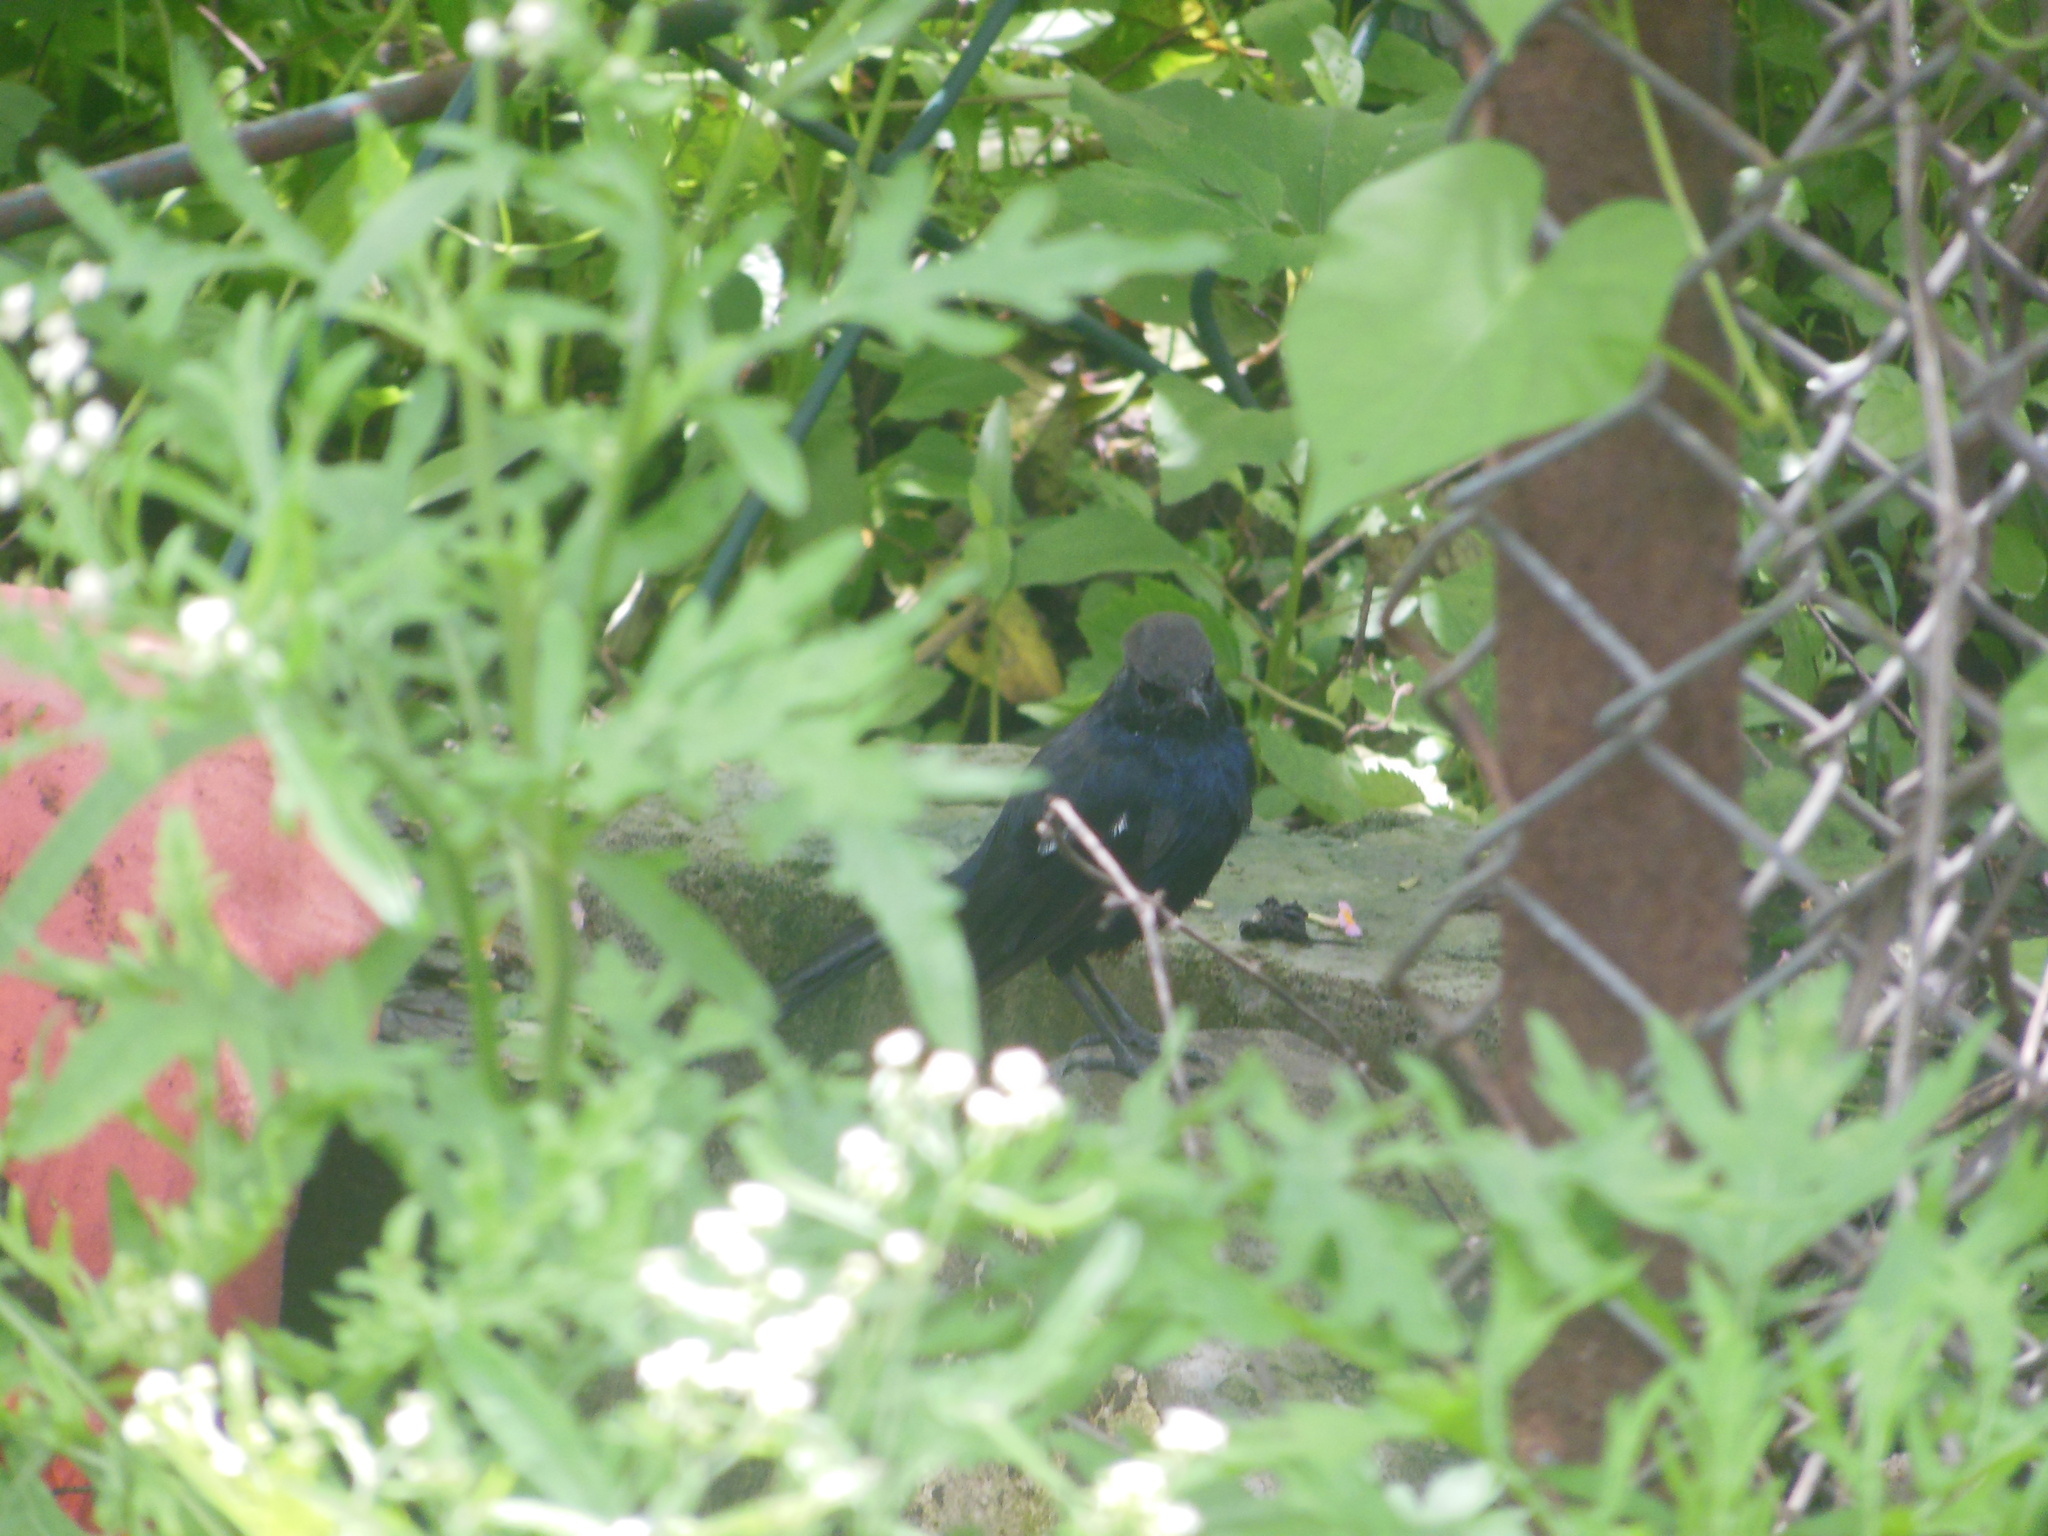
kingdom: Animalia
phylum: Chordata
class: Aves
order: Passeriformes
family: Muscicapidae
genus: Saxicoloides
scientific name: Saxicoloides fulicatus
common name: Indian robin
